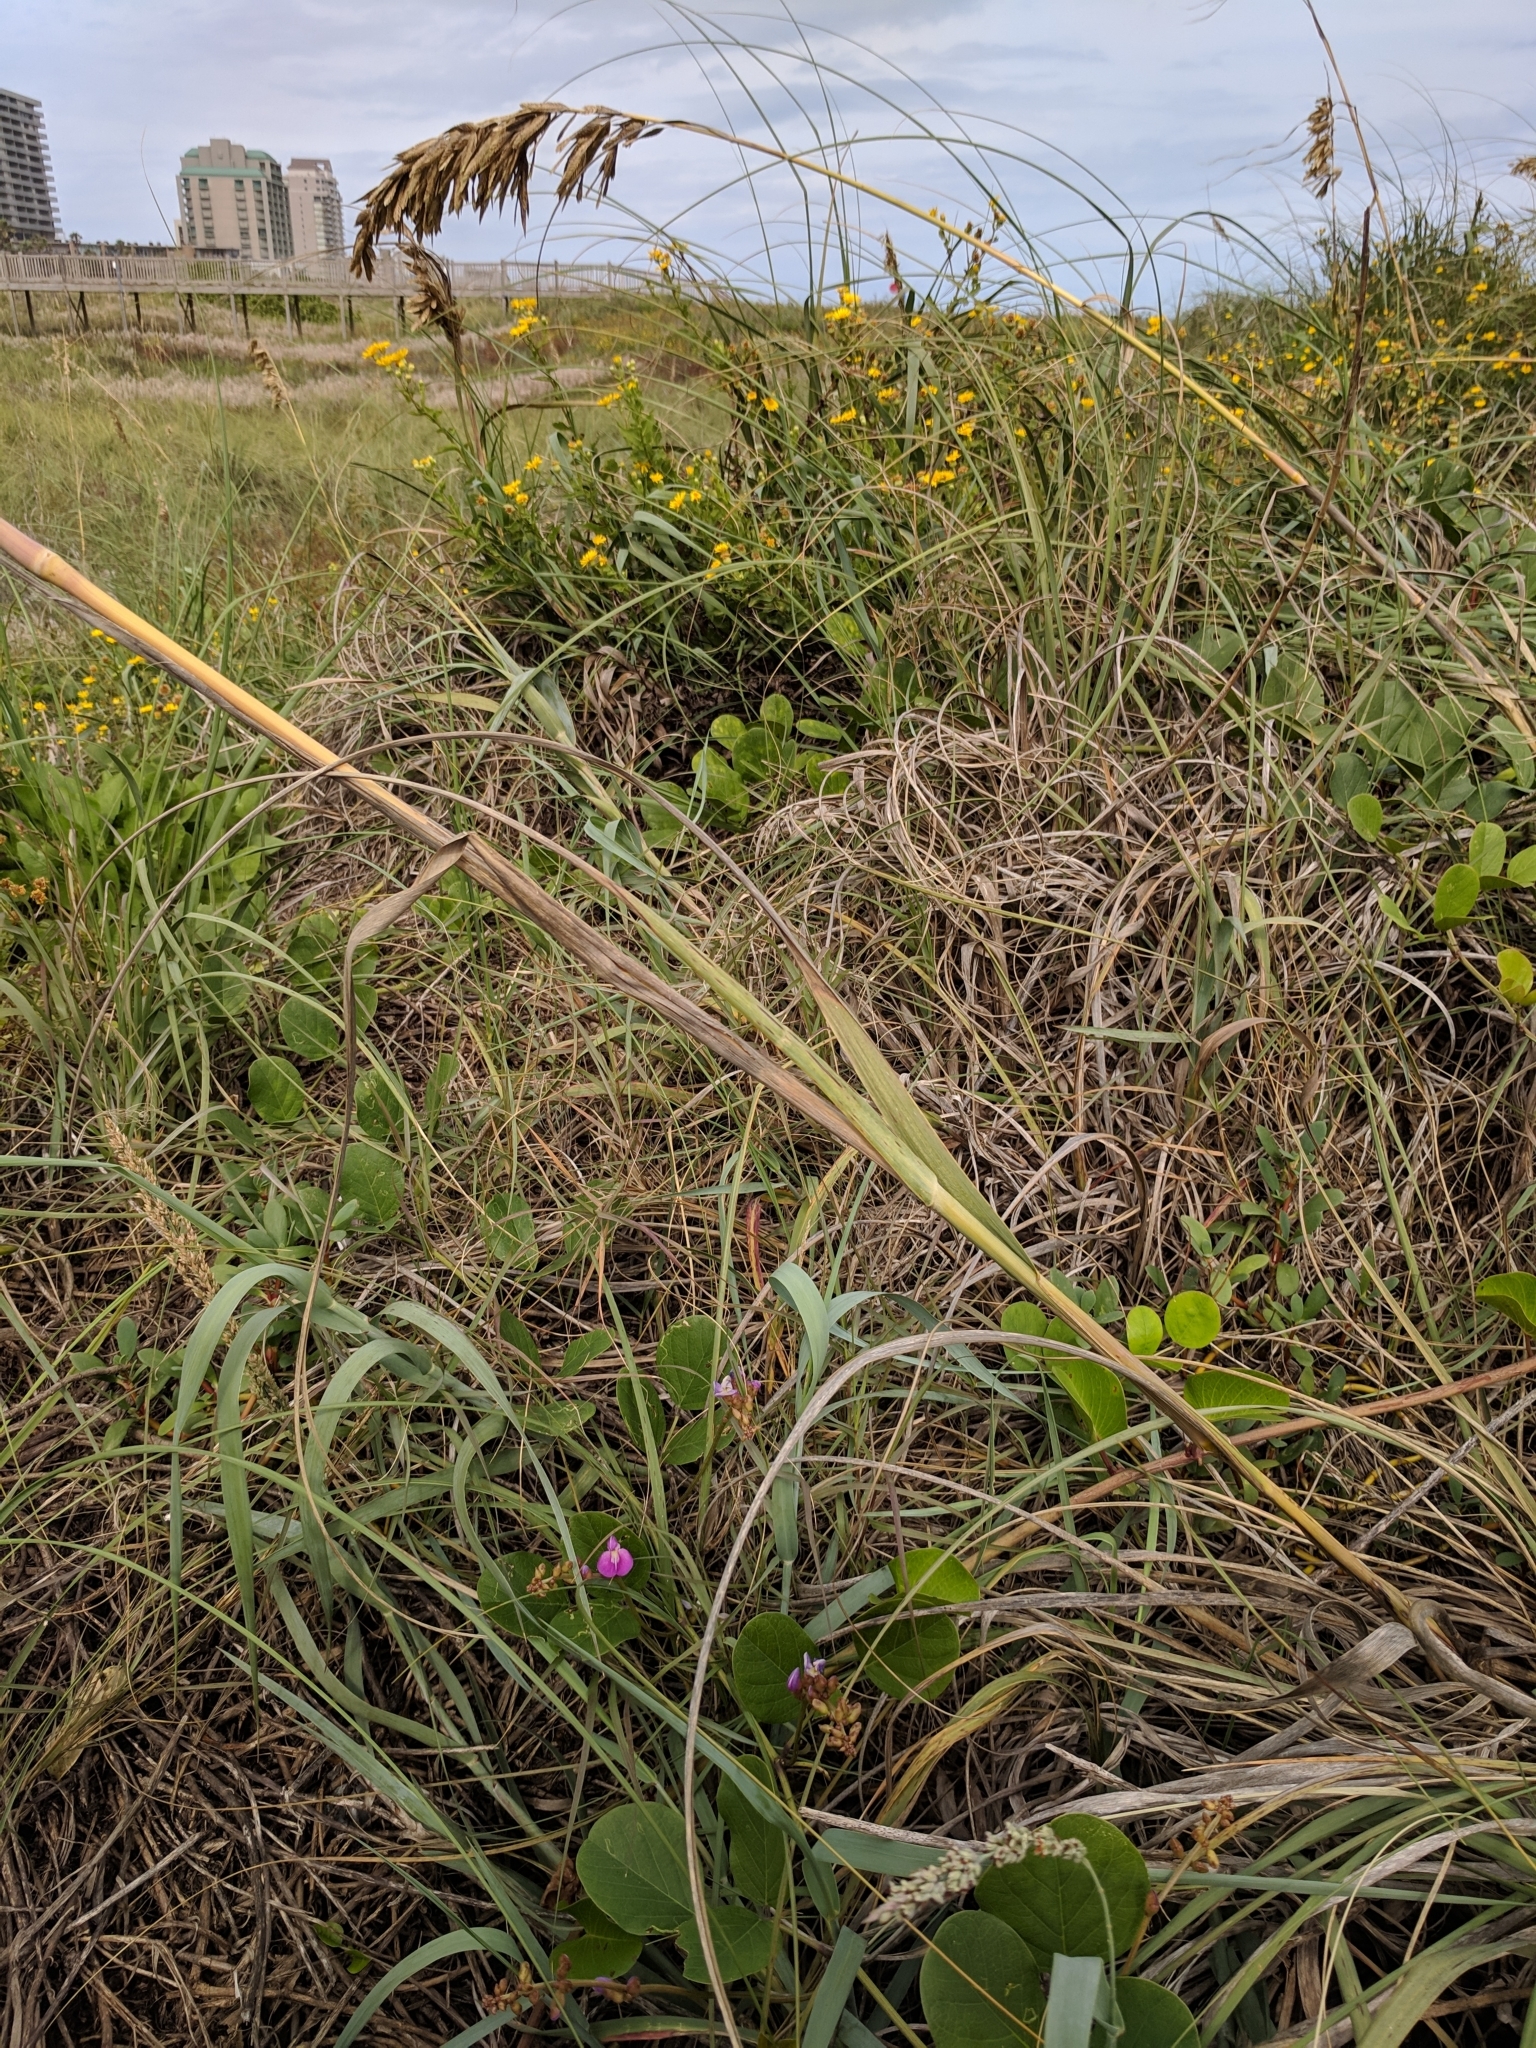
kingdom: Plantae
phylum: Tracheophyta
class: Liliopsida
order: Poales
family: Poaceae
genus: Uniola
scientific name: Uniola paniculata
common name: Seaside-oats
